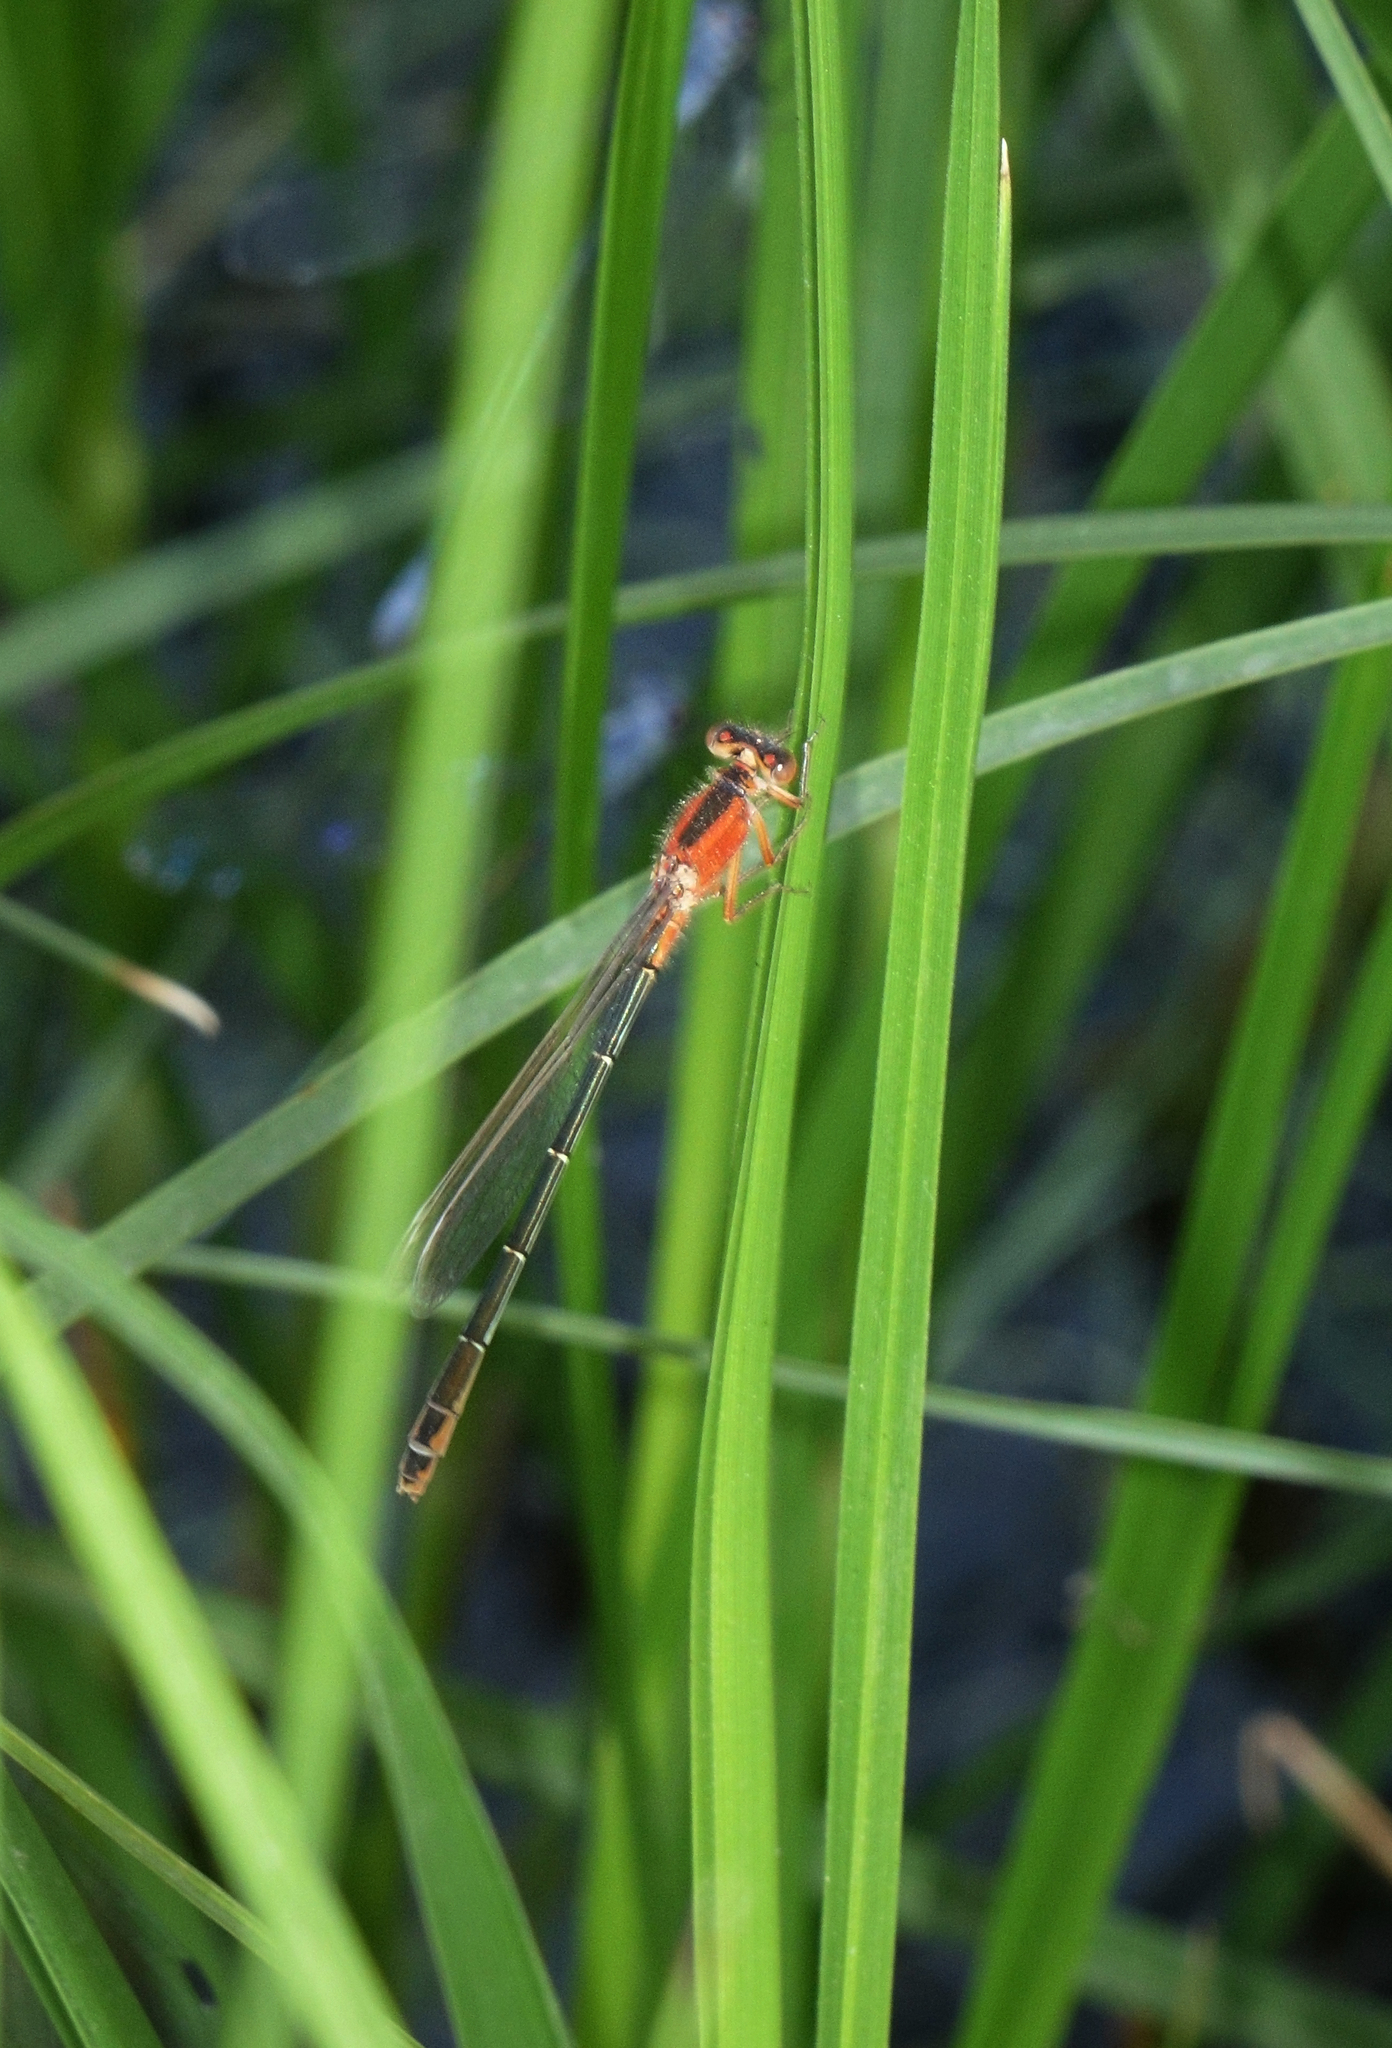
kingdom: Animalia
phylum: Arthropoda
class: Insecta
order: Odonata
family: Coenagrionidae
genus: Ischnura
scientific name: Ischnura fountaineae
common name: Oasis bluetail
